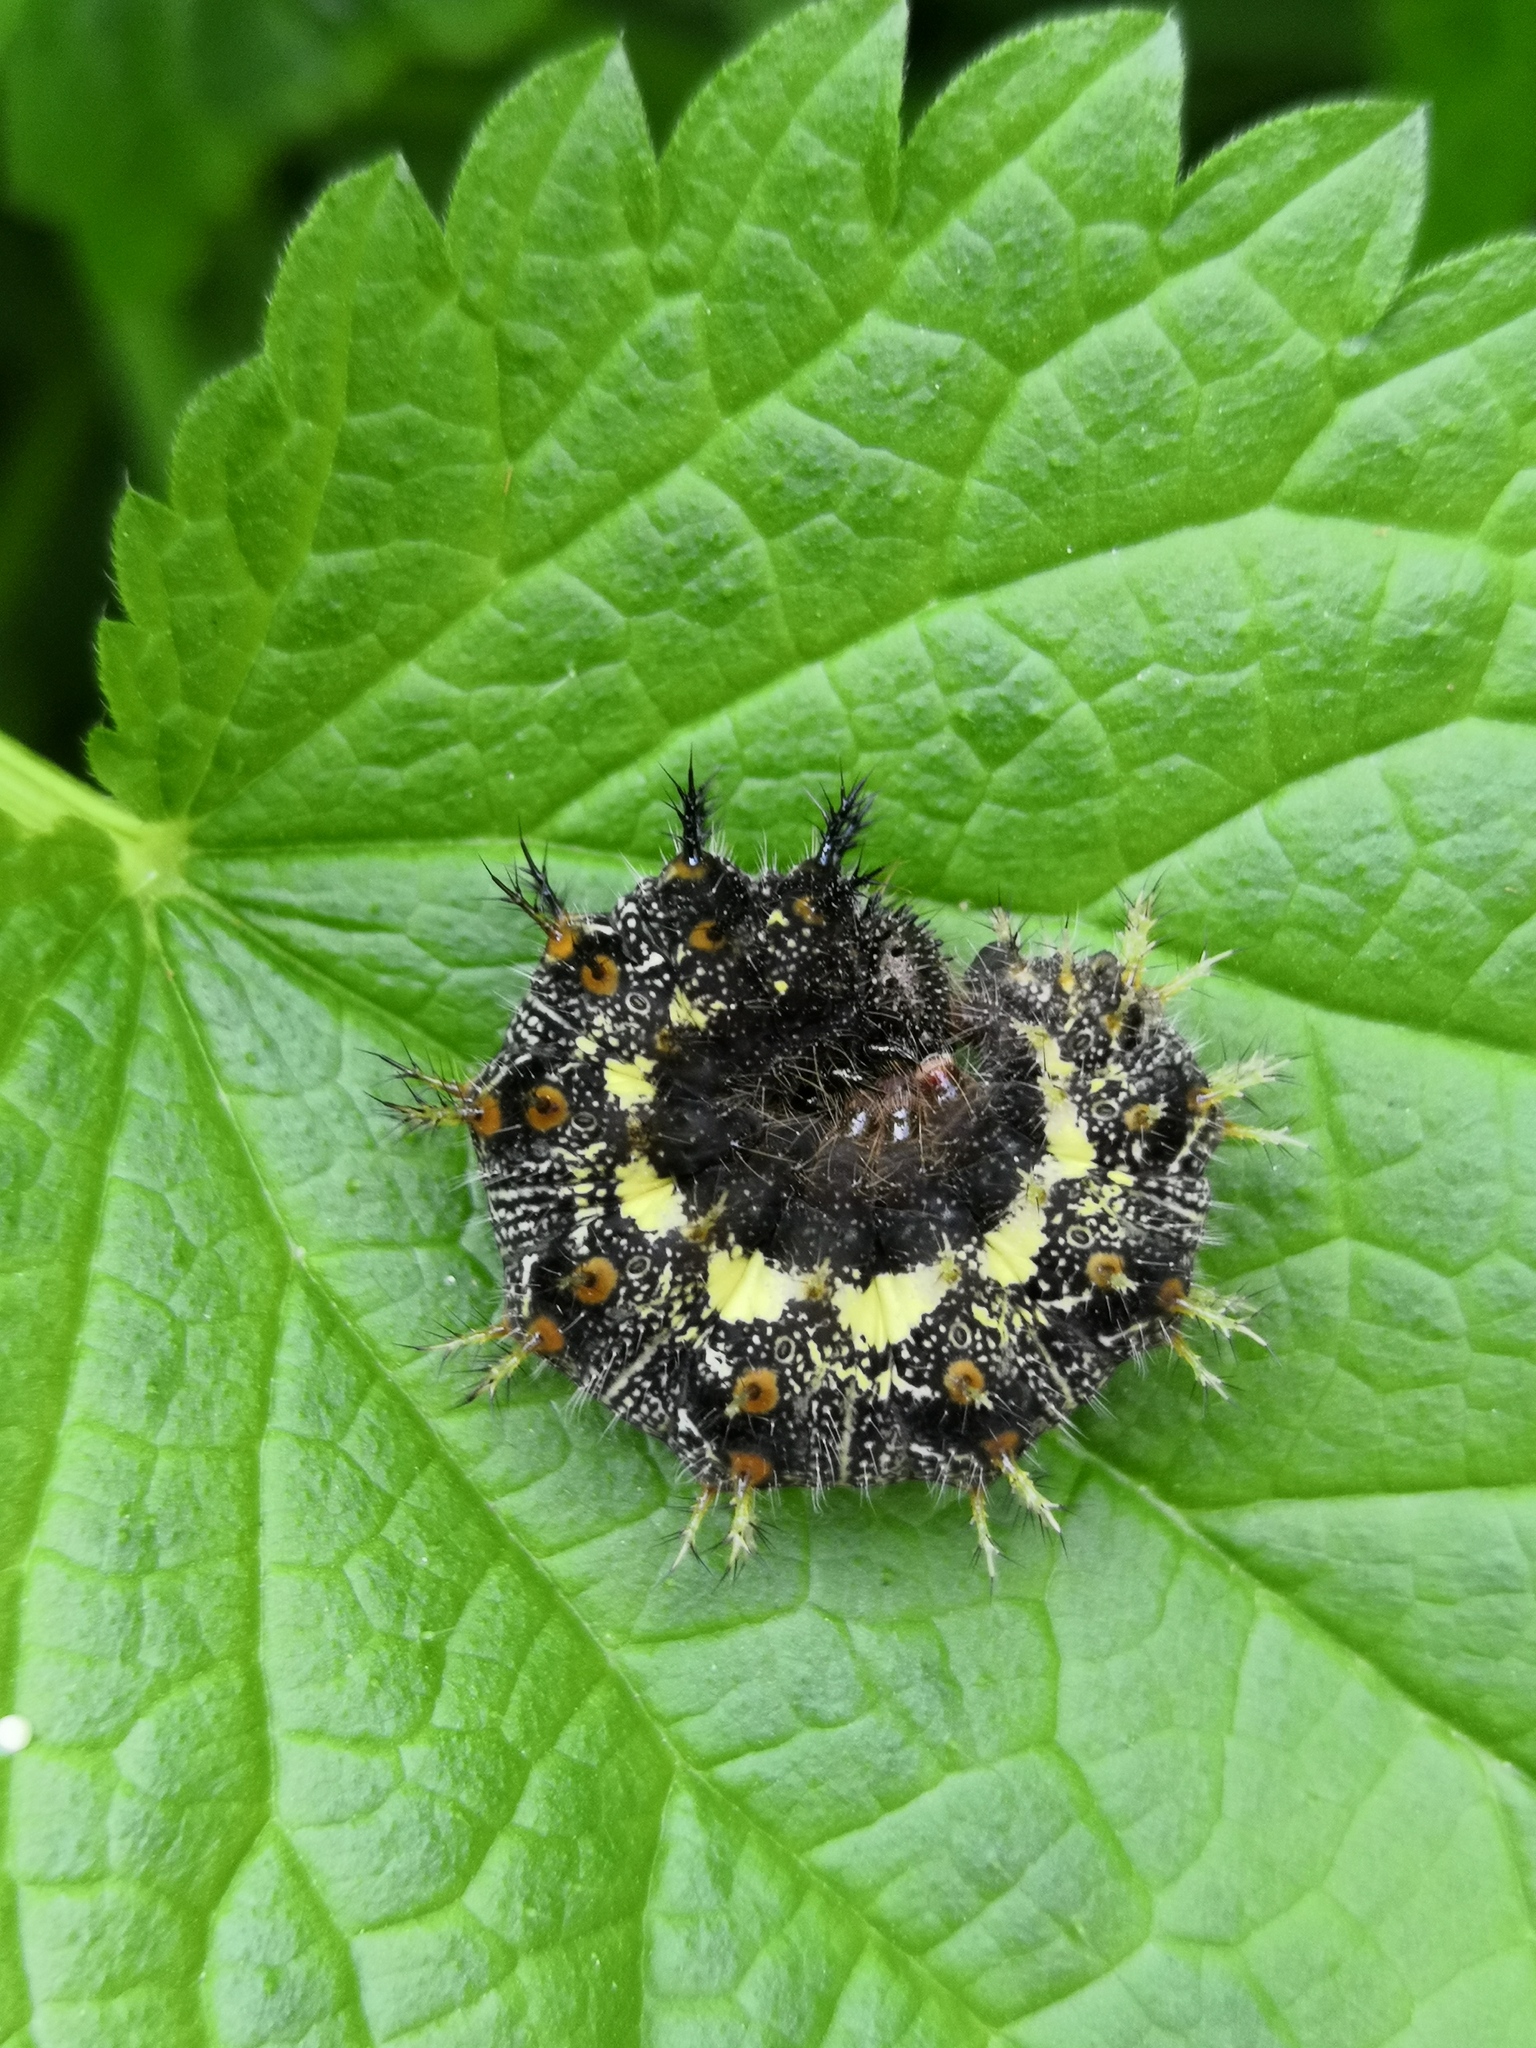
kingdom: Animalia
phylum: Arthropoda
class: Insecta
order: Lepidoptera
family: Nymphalidae
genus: Vanessa
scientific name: Vanessa atalanta
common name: Red admiral
